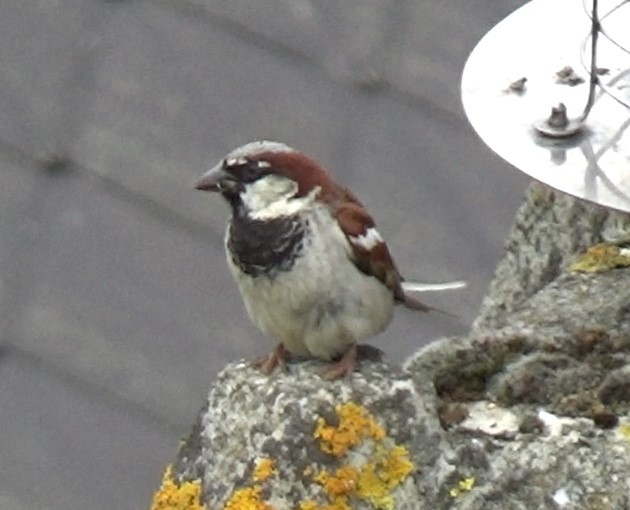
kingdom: Animalia
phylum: Chordata
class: Aves
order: Passeriformes
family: Passeridae
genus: Passer
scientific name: Passer domesticus
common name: House sparrow
